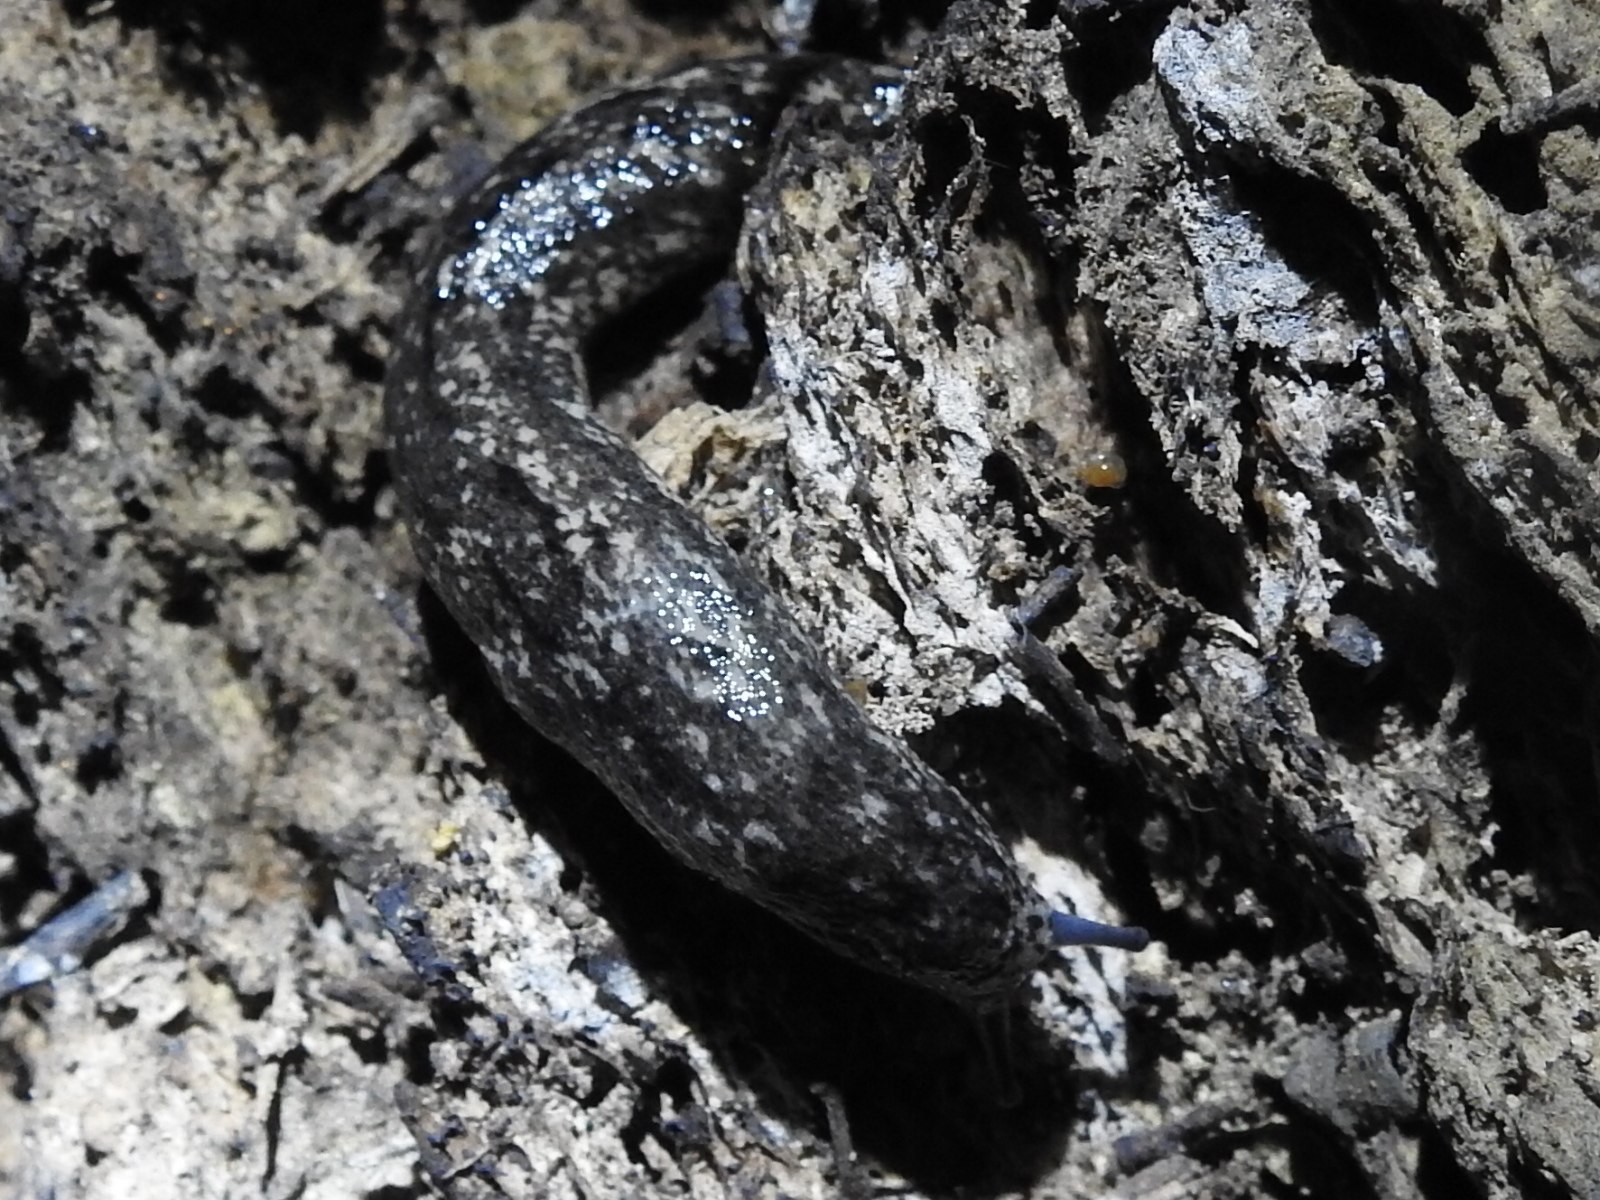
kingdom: Animalia
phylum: Mollusca
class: Gastropoda
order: Stylommatophora
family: Philomycidae
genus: Philomycus
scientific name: Philomycus carolinianus
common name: Carolina mantleslug
